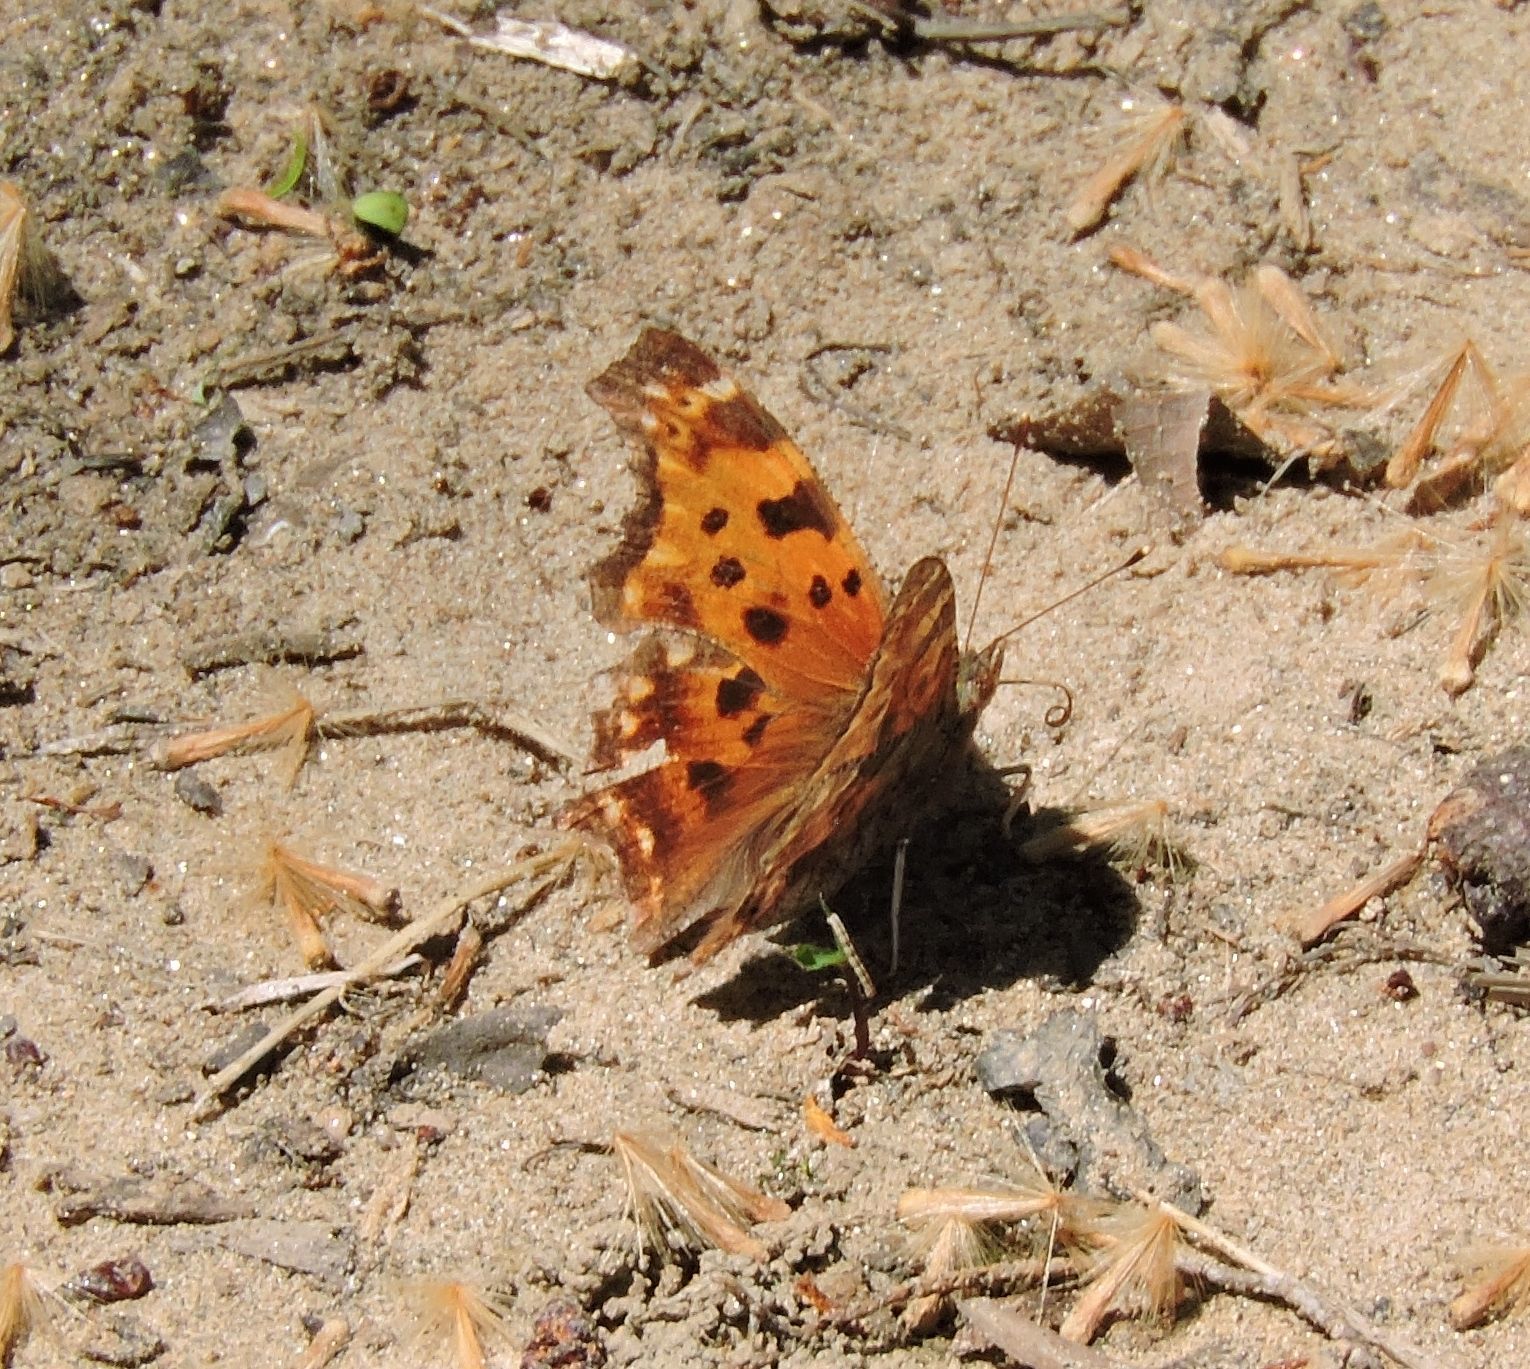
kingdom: Animalia
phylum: Arthropoda
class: Insecta
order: Lepidoptera
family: Nymphalidae
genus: Polygonia
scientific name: Polygonia comma
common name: Eastern comma
